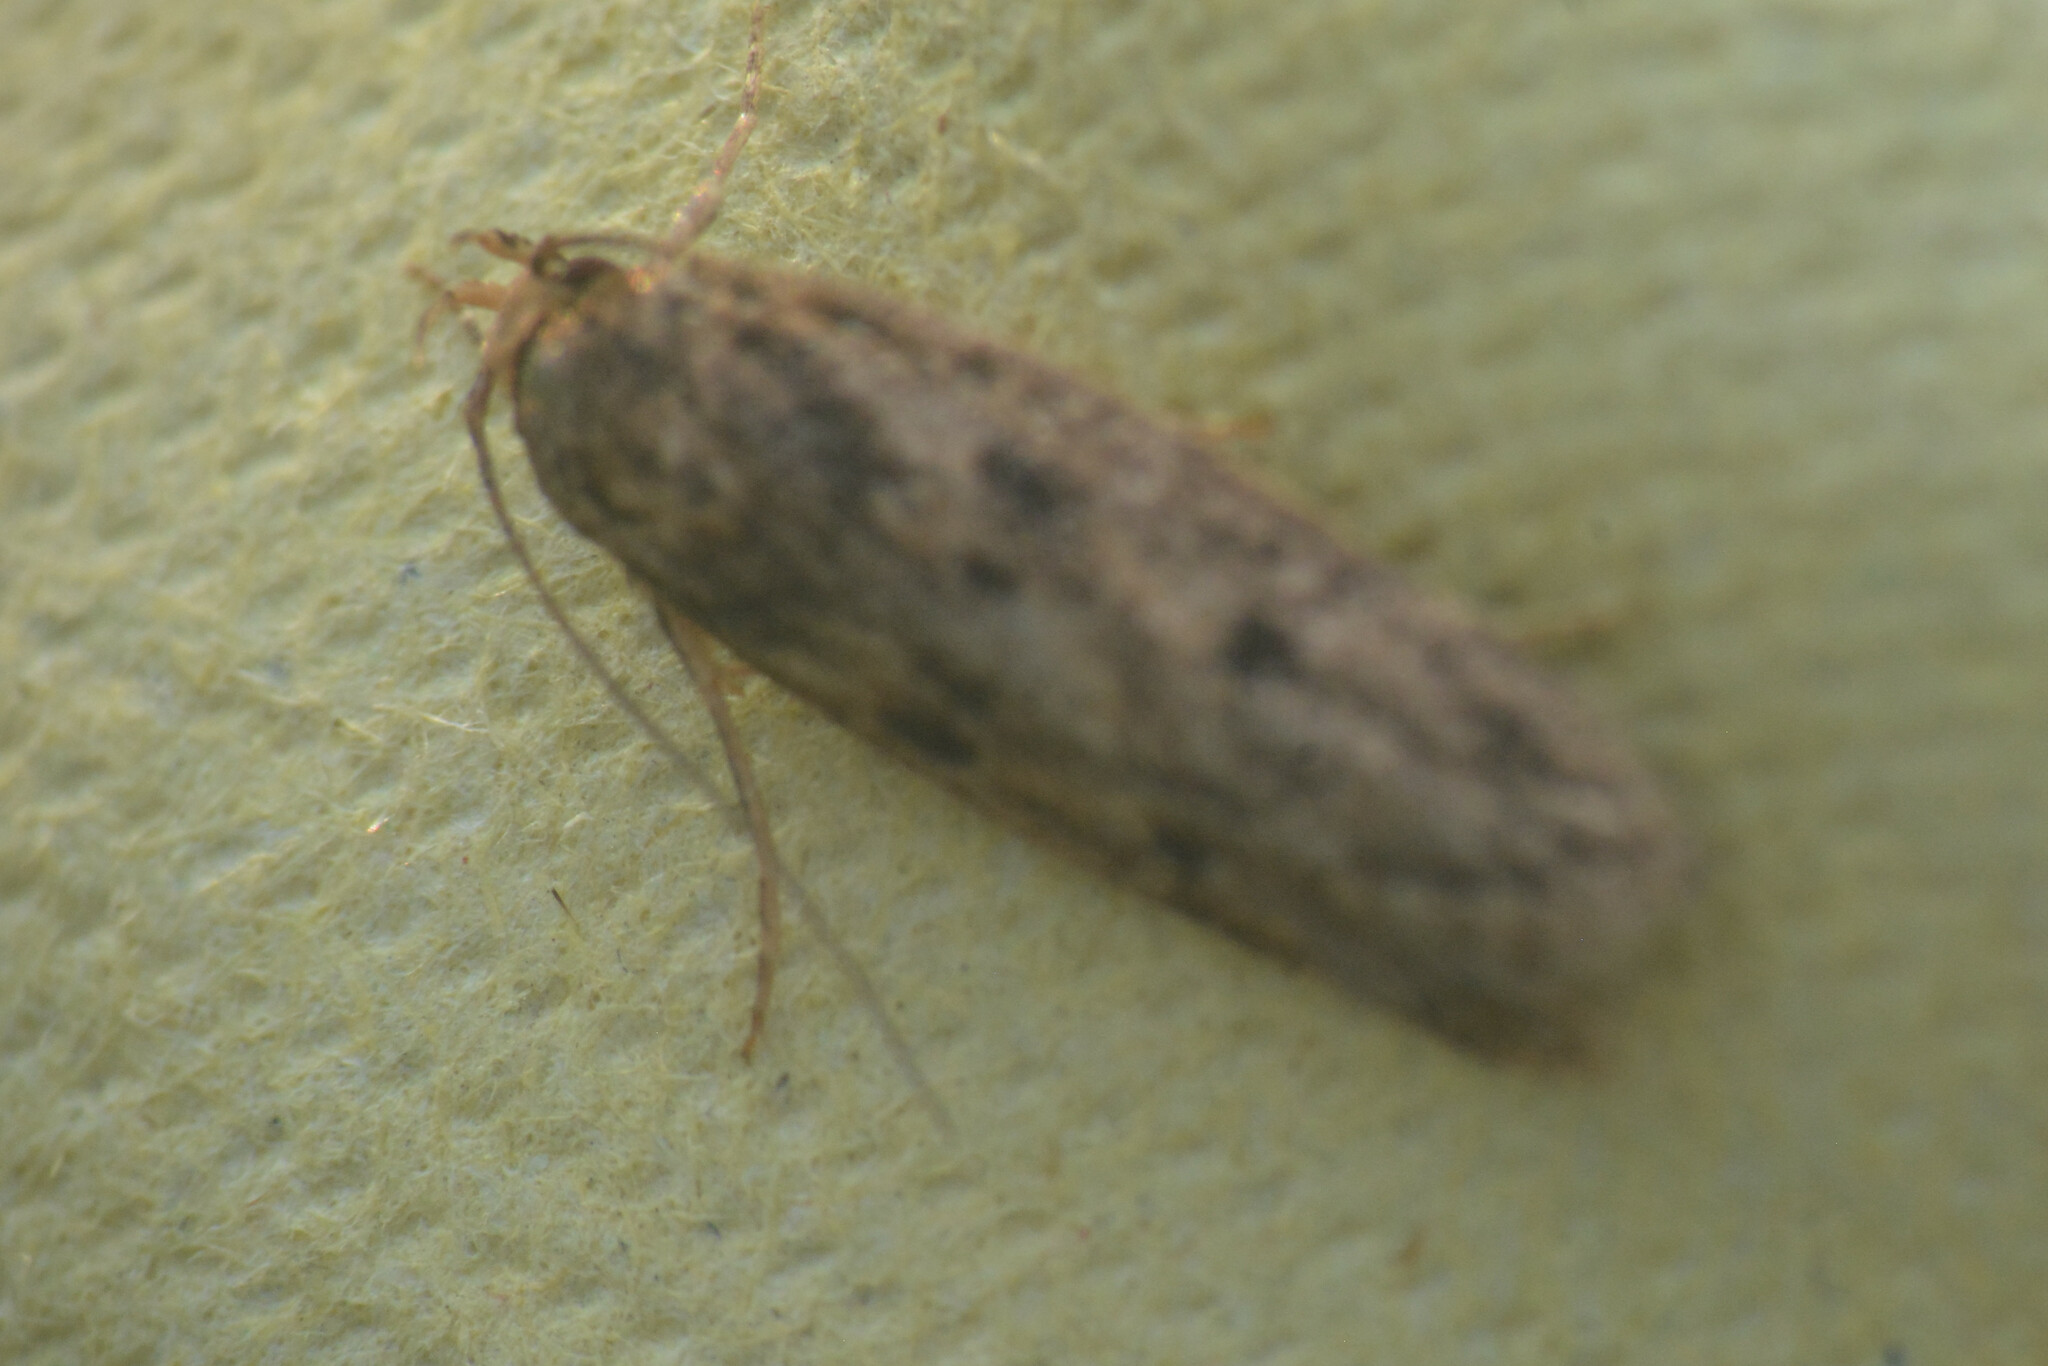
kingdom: Animalia
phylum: Arthropoda
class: Insecta
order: Lepidoptera
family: Oecophoridae
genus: Hofmannophila
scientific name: Hofmannophila pseudospretella
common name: Brown house moth
